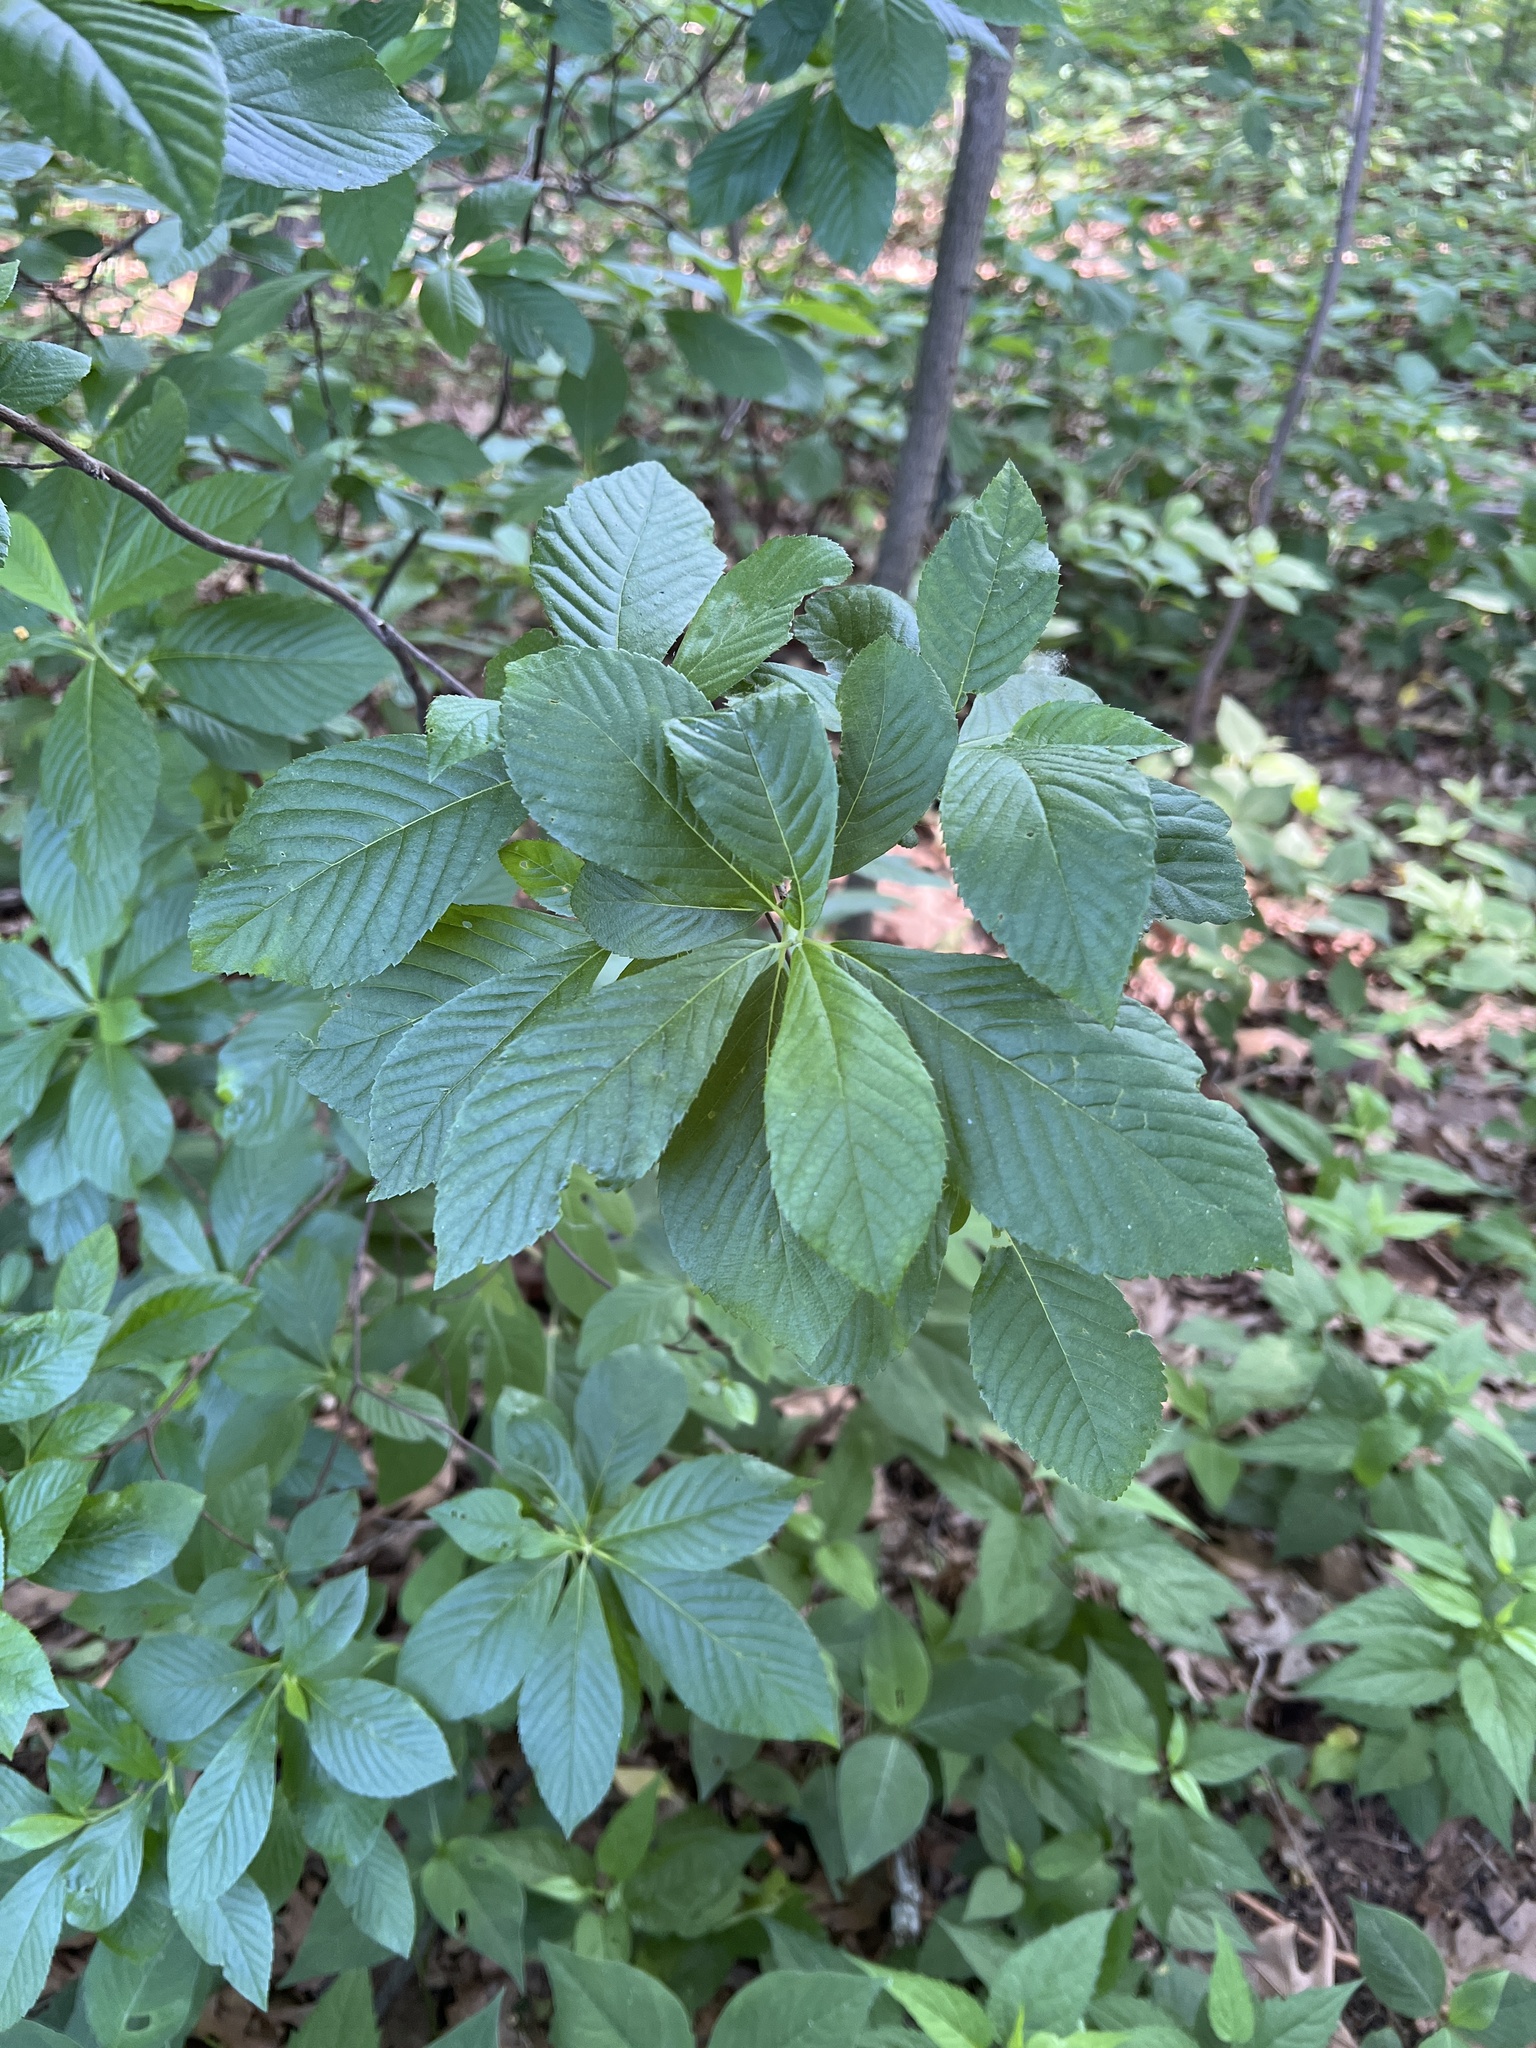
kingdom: Plantae
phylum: Tracheophyta
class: Magnoliopsida
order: Ericales
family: Clethraceae
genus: Clethra
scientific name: Clethra alnifolia
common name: Sweet pepperbush
